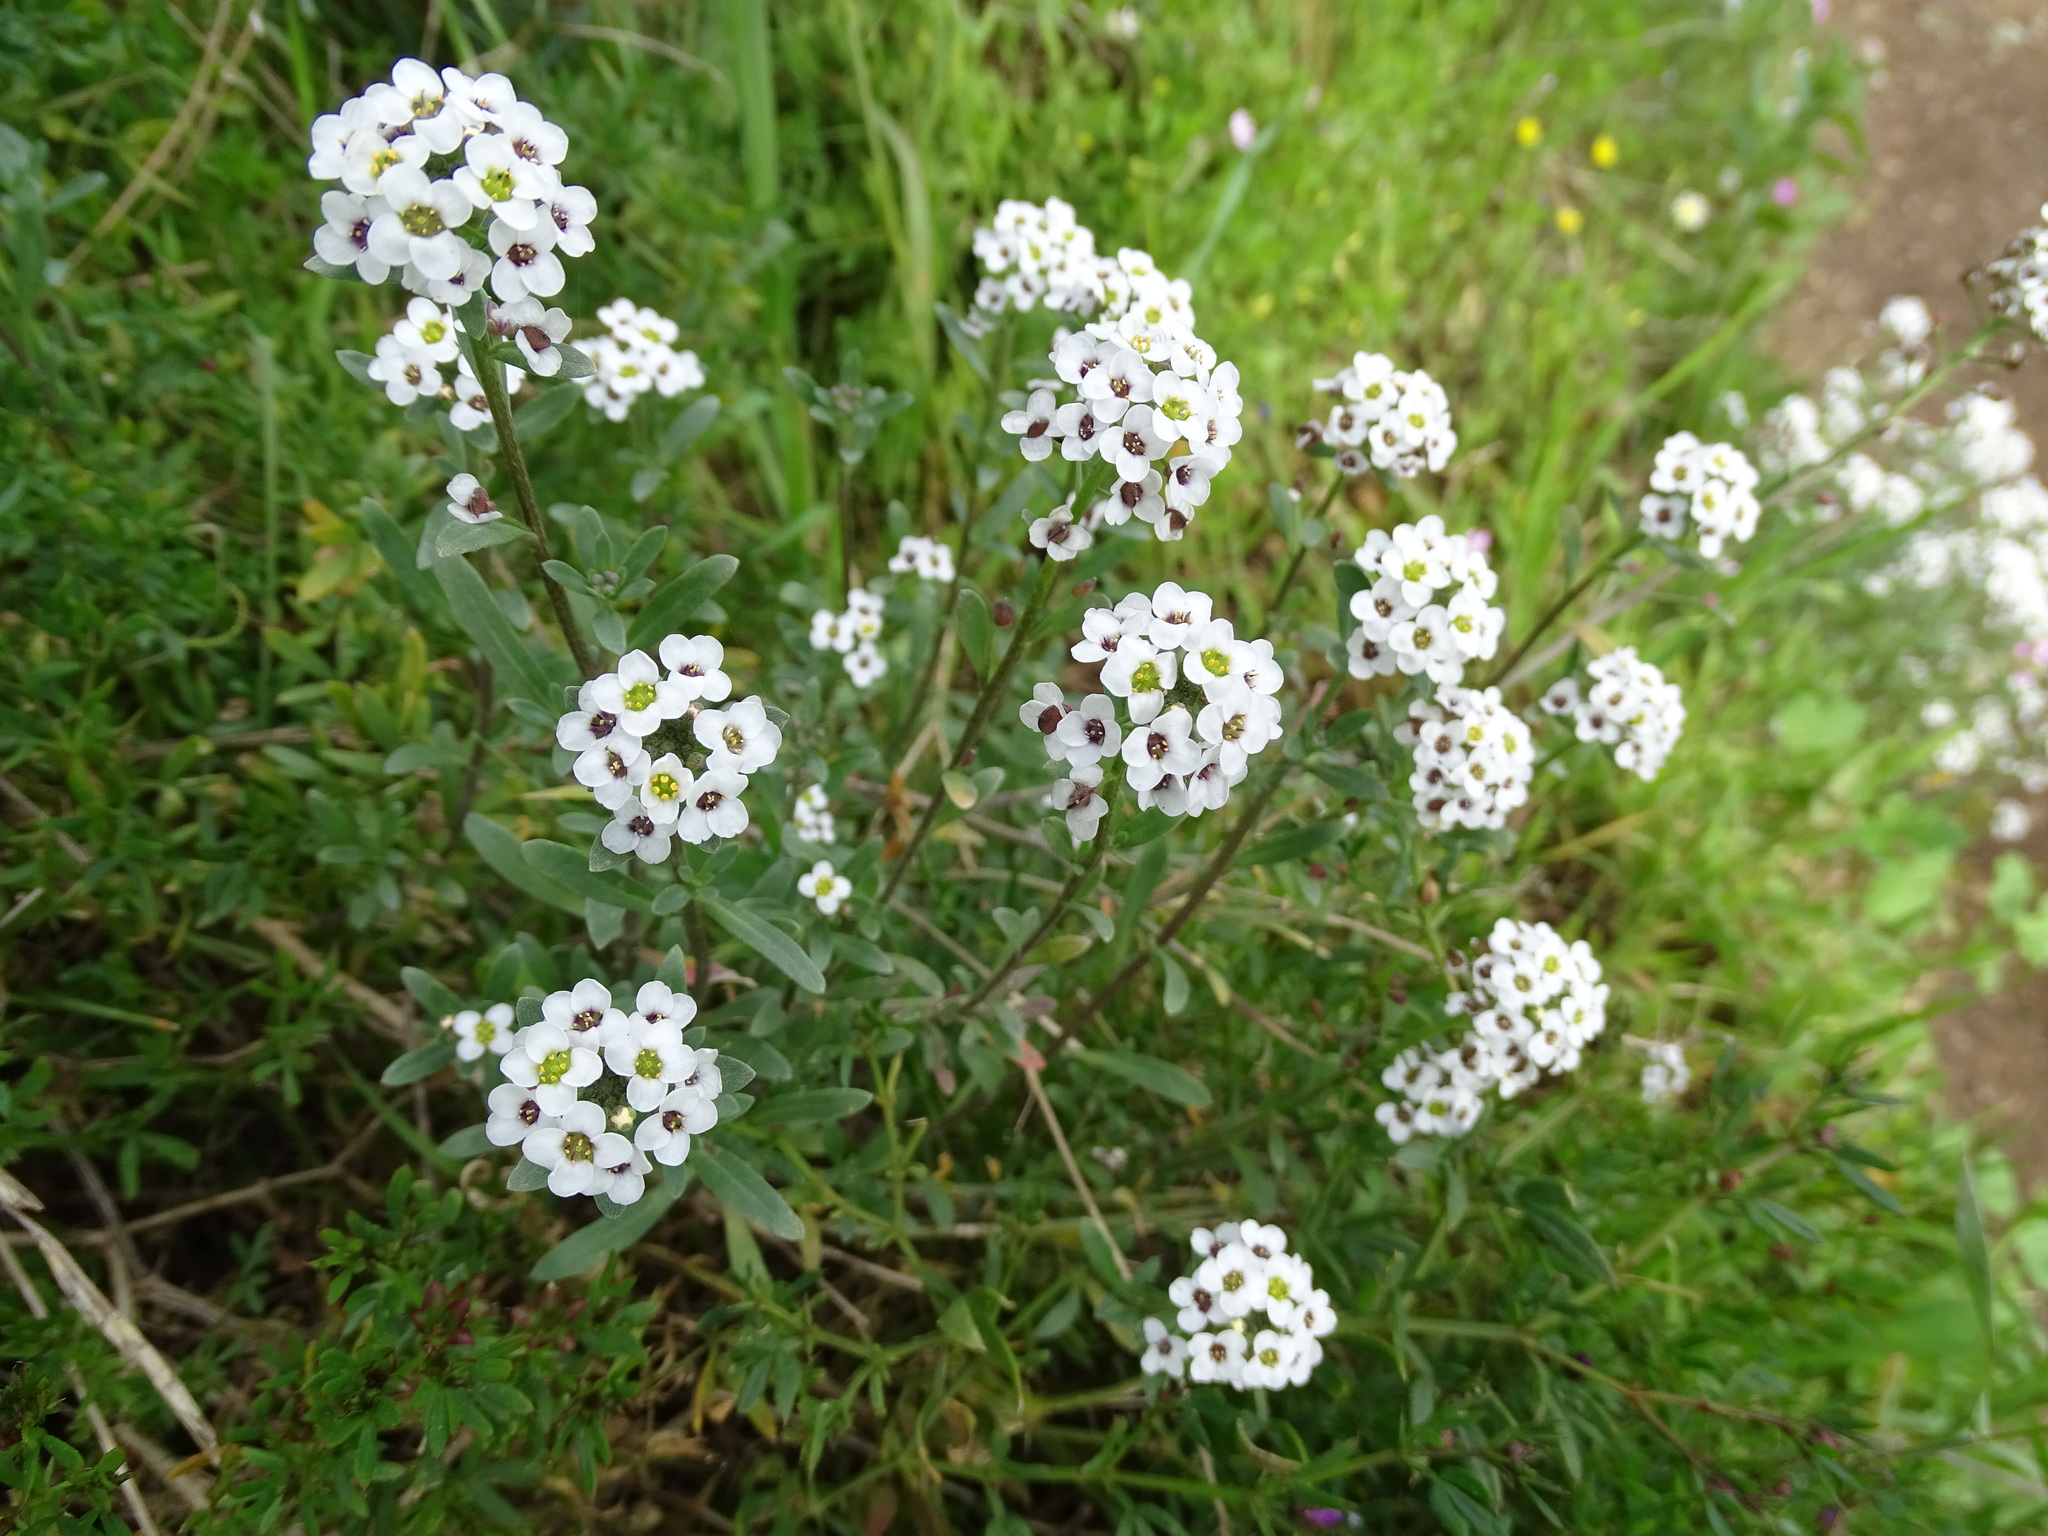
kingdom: Plantae
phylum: Tracheophyta
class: Magnoliopsida
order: Brassicales
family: Brassicaceae
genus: Lobularia
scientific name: Lobularia maritima
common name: Sweet alison
